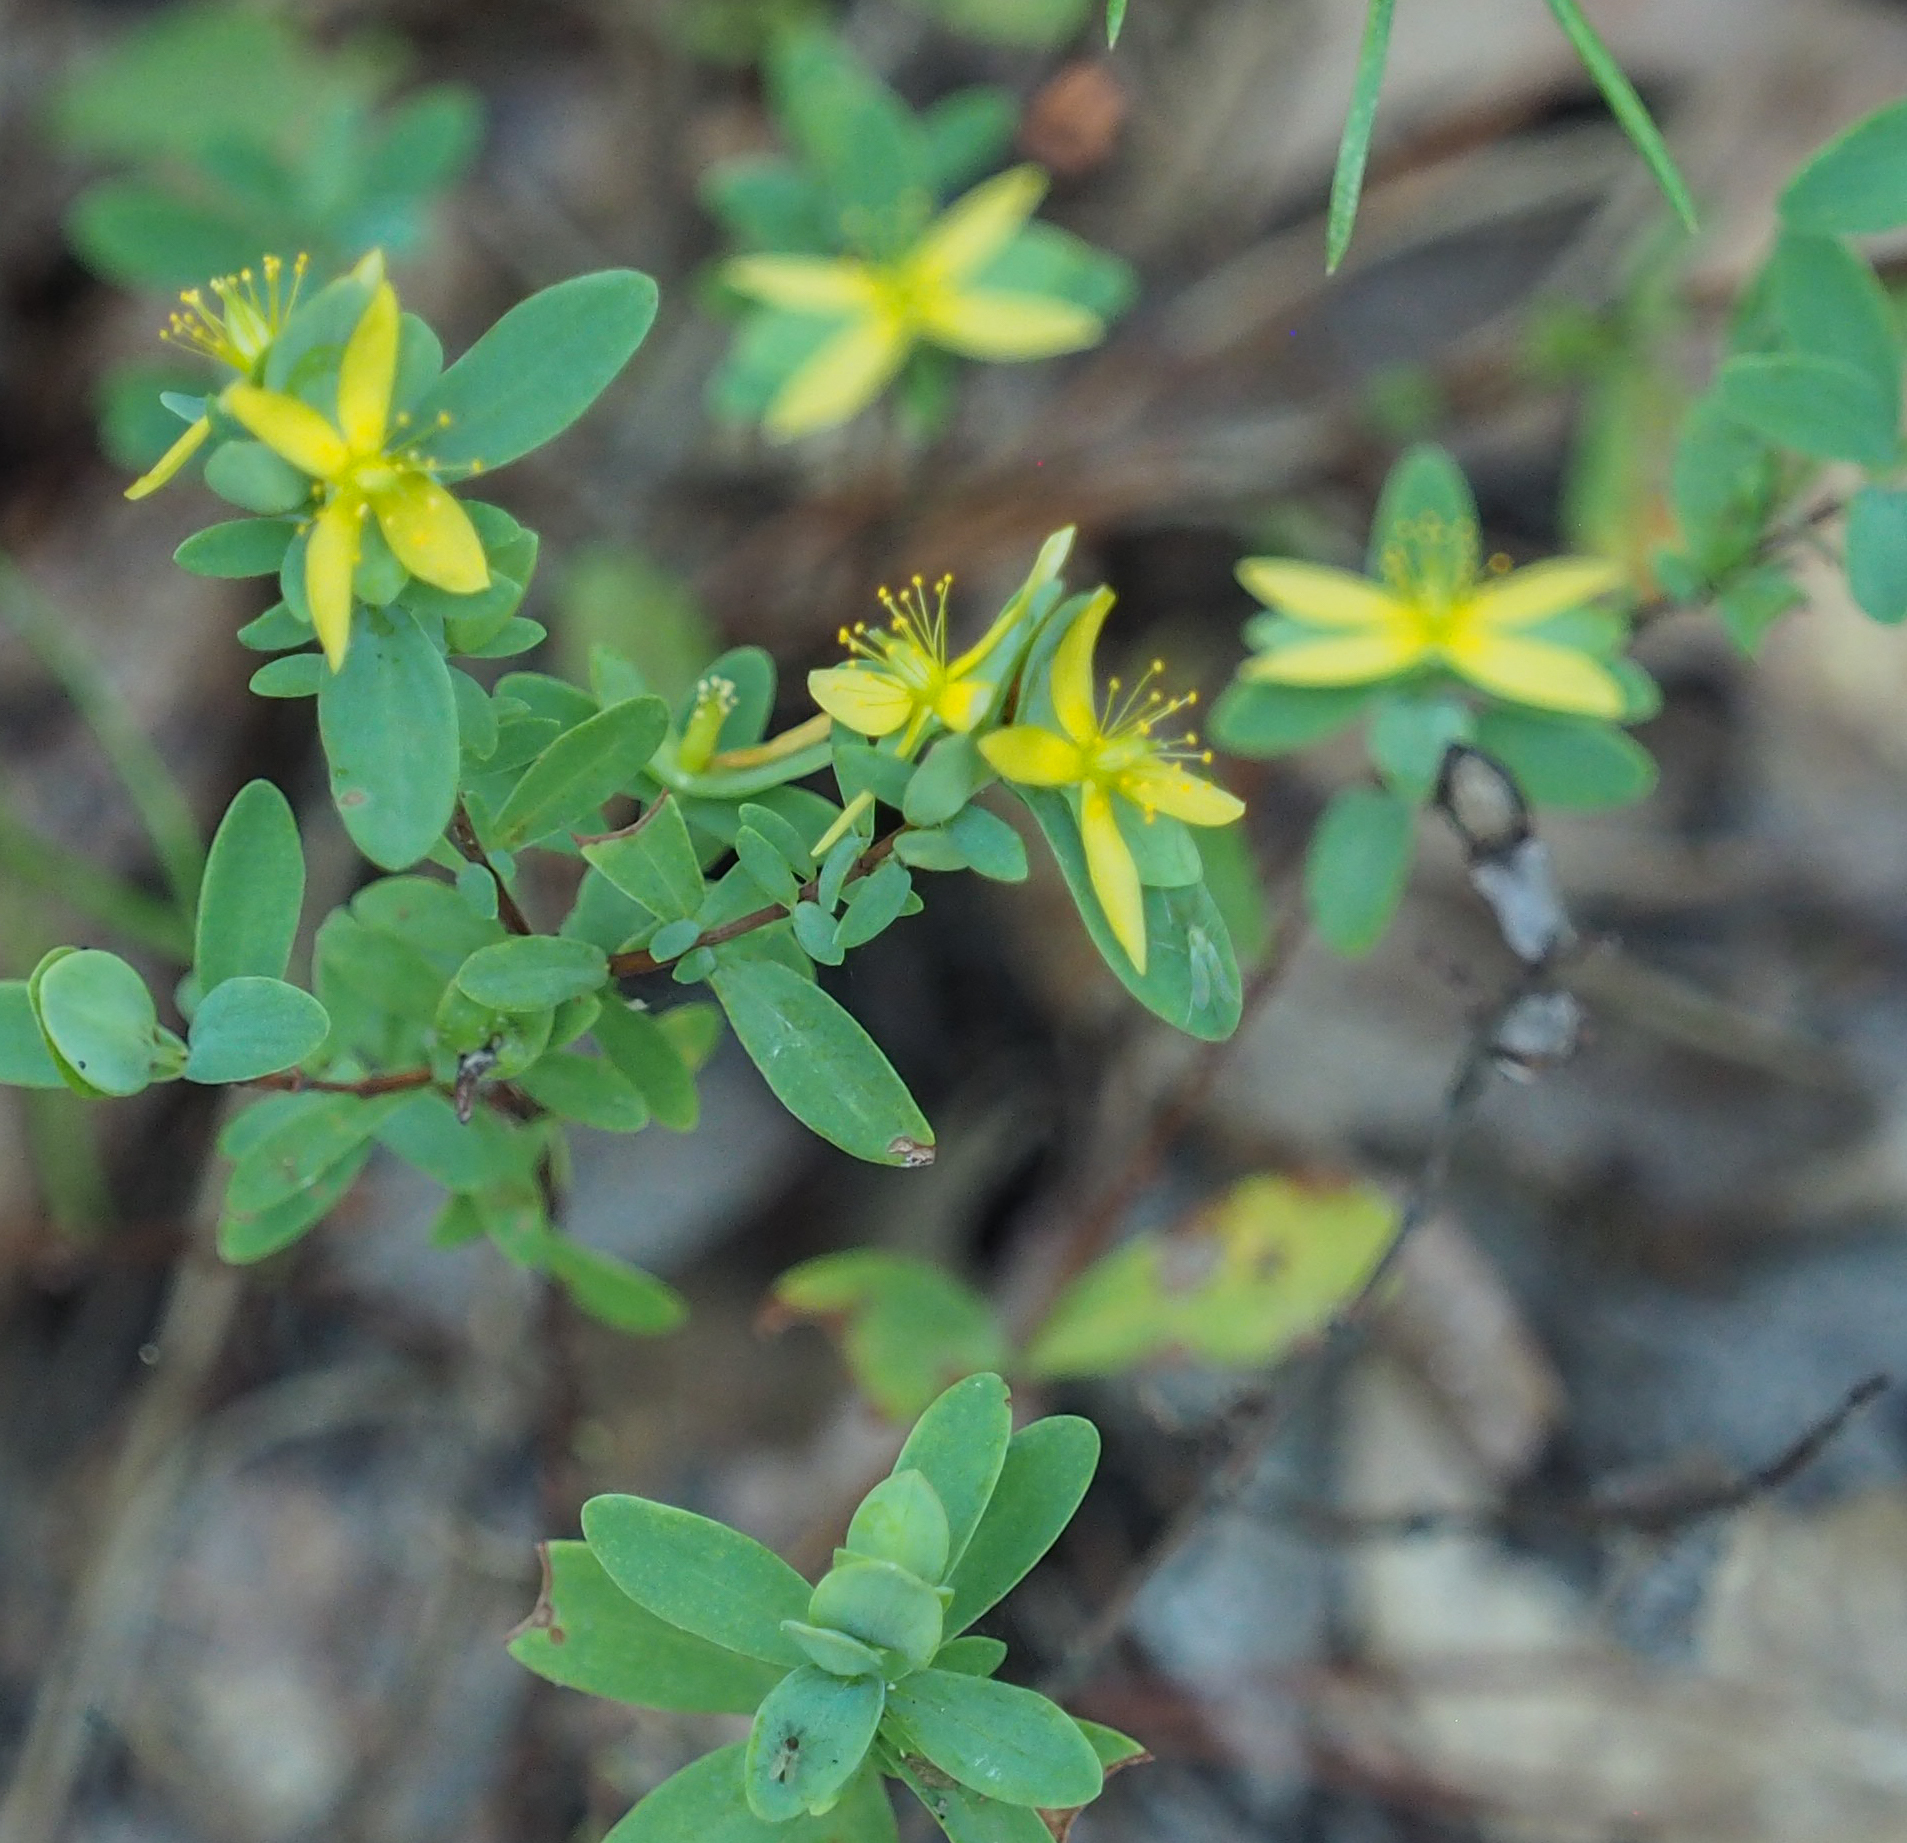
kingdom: Plantae
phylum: Tracheophyta
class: Magnoliopsida
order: Malpighiales
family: Hypericaceae
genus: Hypericum
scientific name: Hypericum hypericoides
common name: St. andrew's cross
